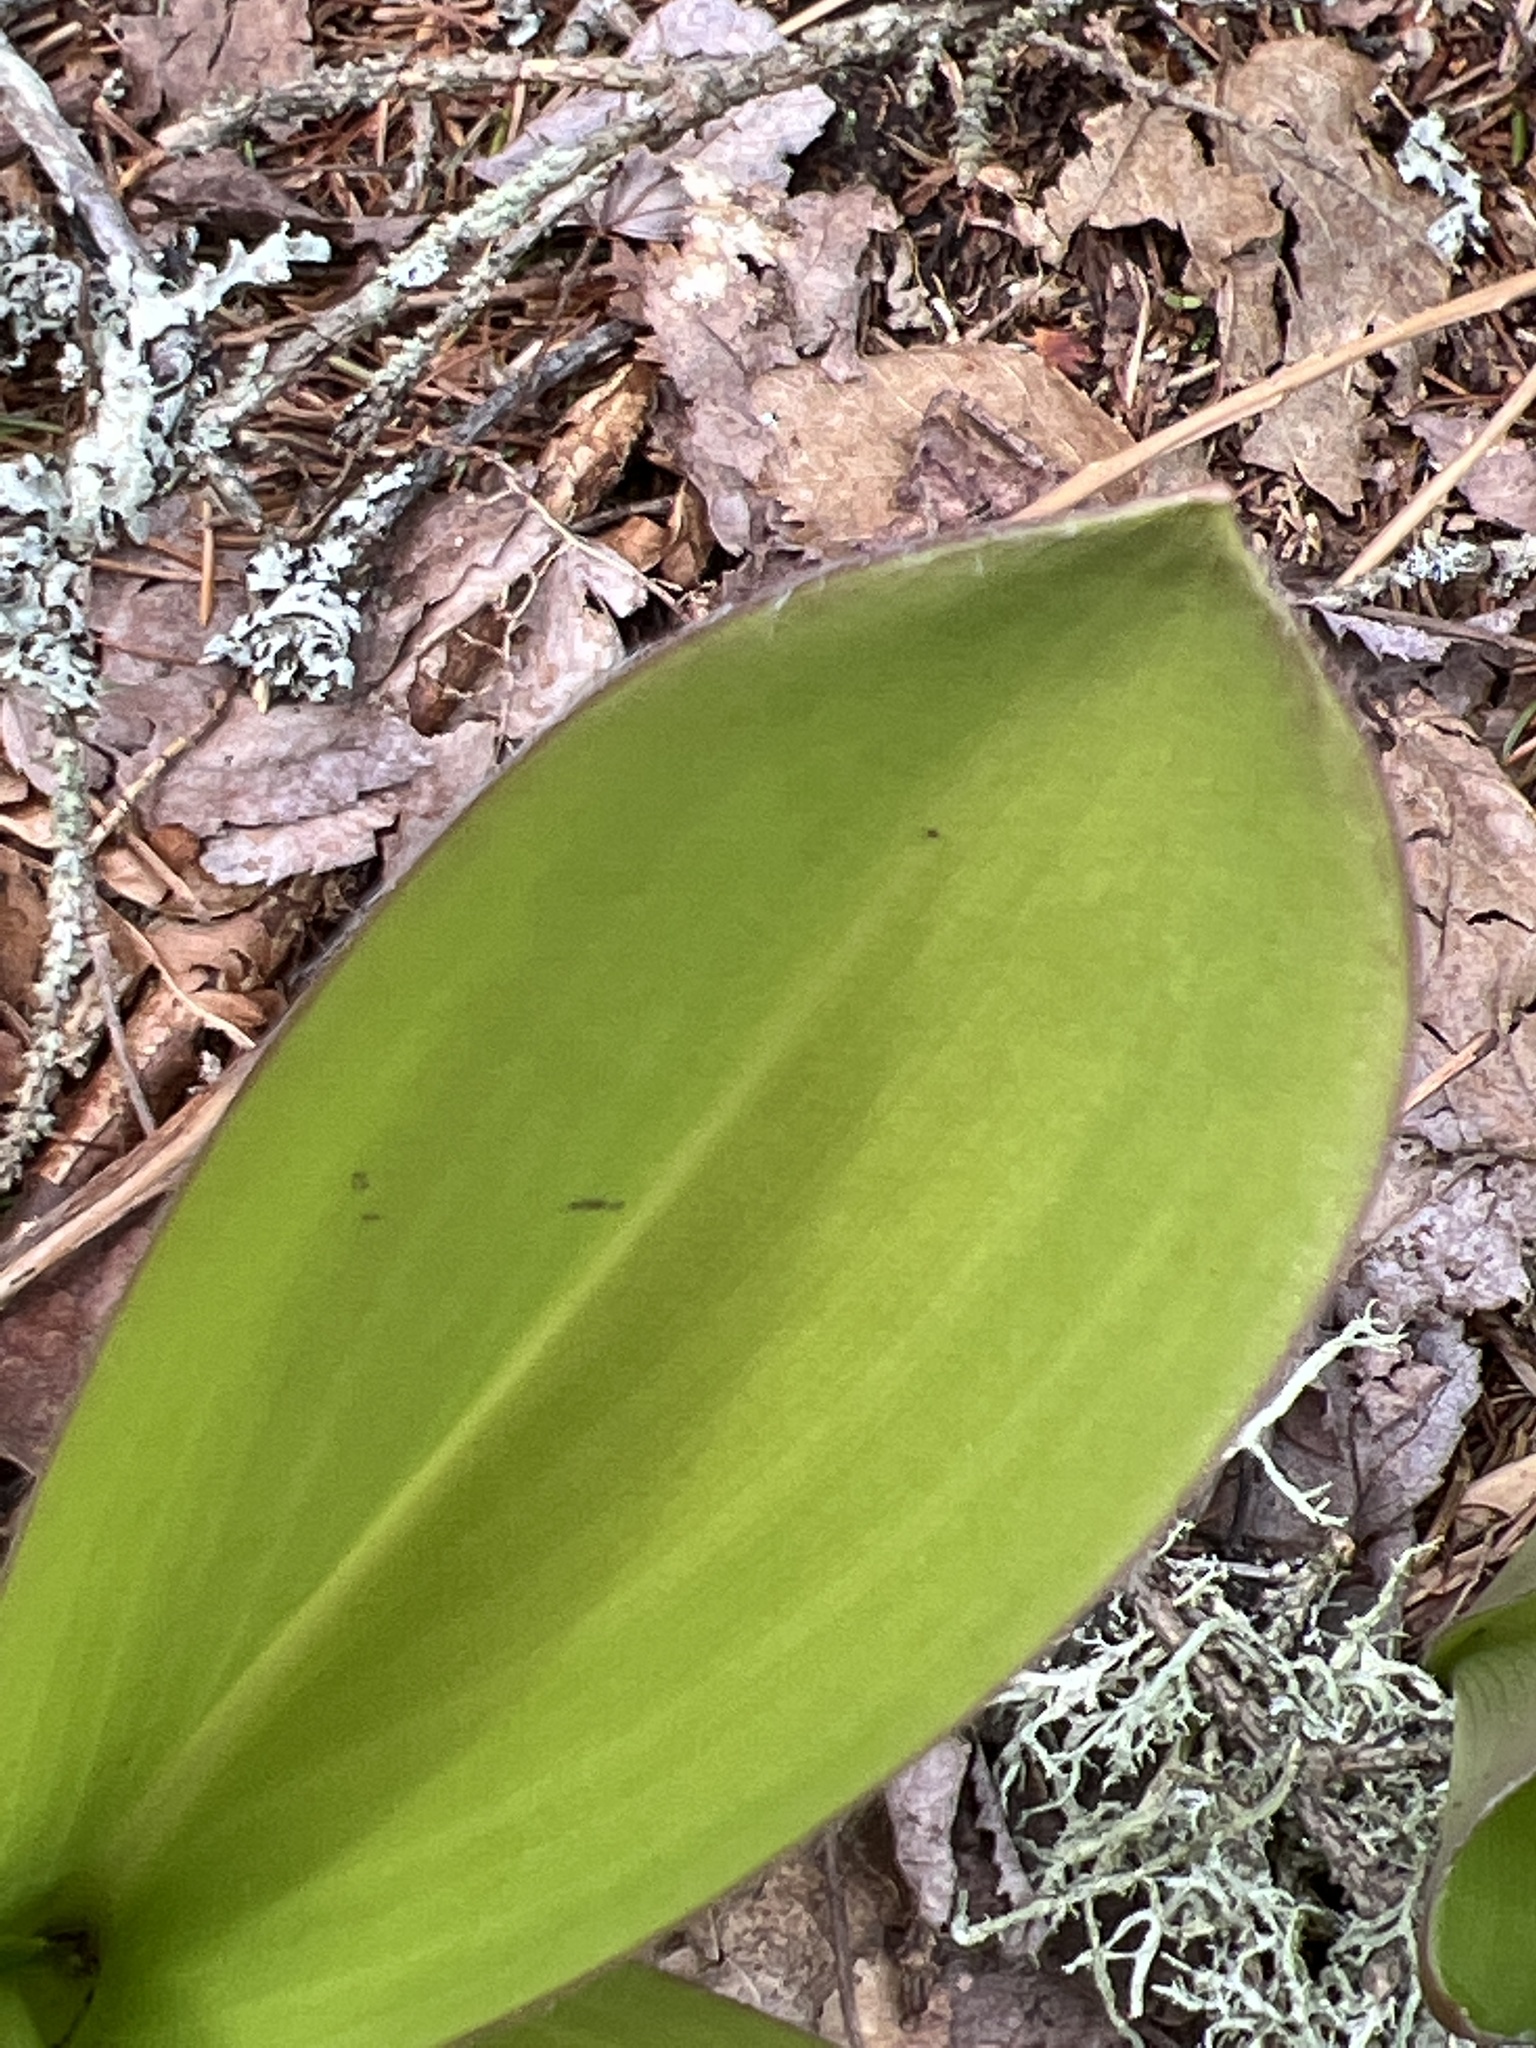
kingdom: Plantae
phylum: Tracheophyta
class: Liliopsida
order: Liliales
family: Liliaceae
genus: Clintonia
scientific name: Clintonia borealis
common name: Yellow clintonia
